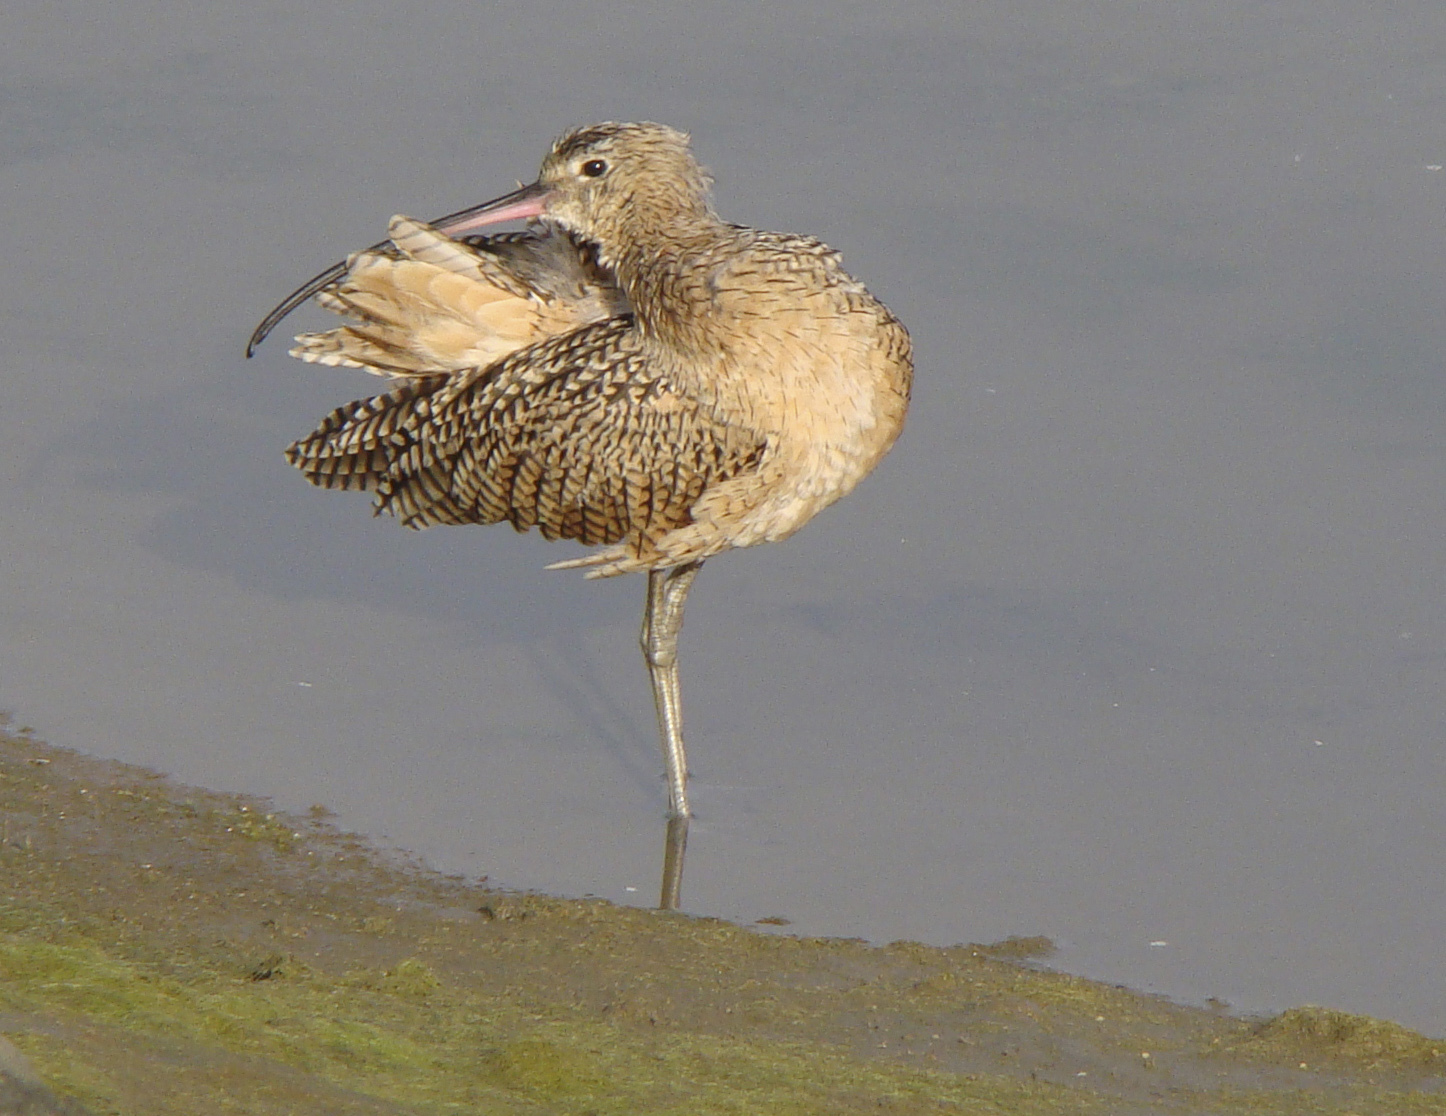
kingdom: Animalia
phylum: Chordata
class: Aves
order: Charadriiformes
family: Scolopacidae
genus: Numenius
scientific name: Numenius americanus
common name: Long-billed curlew
